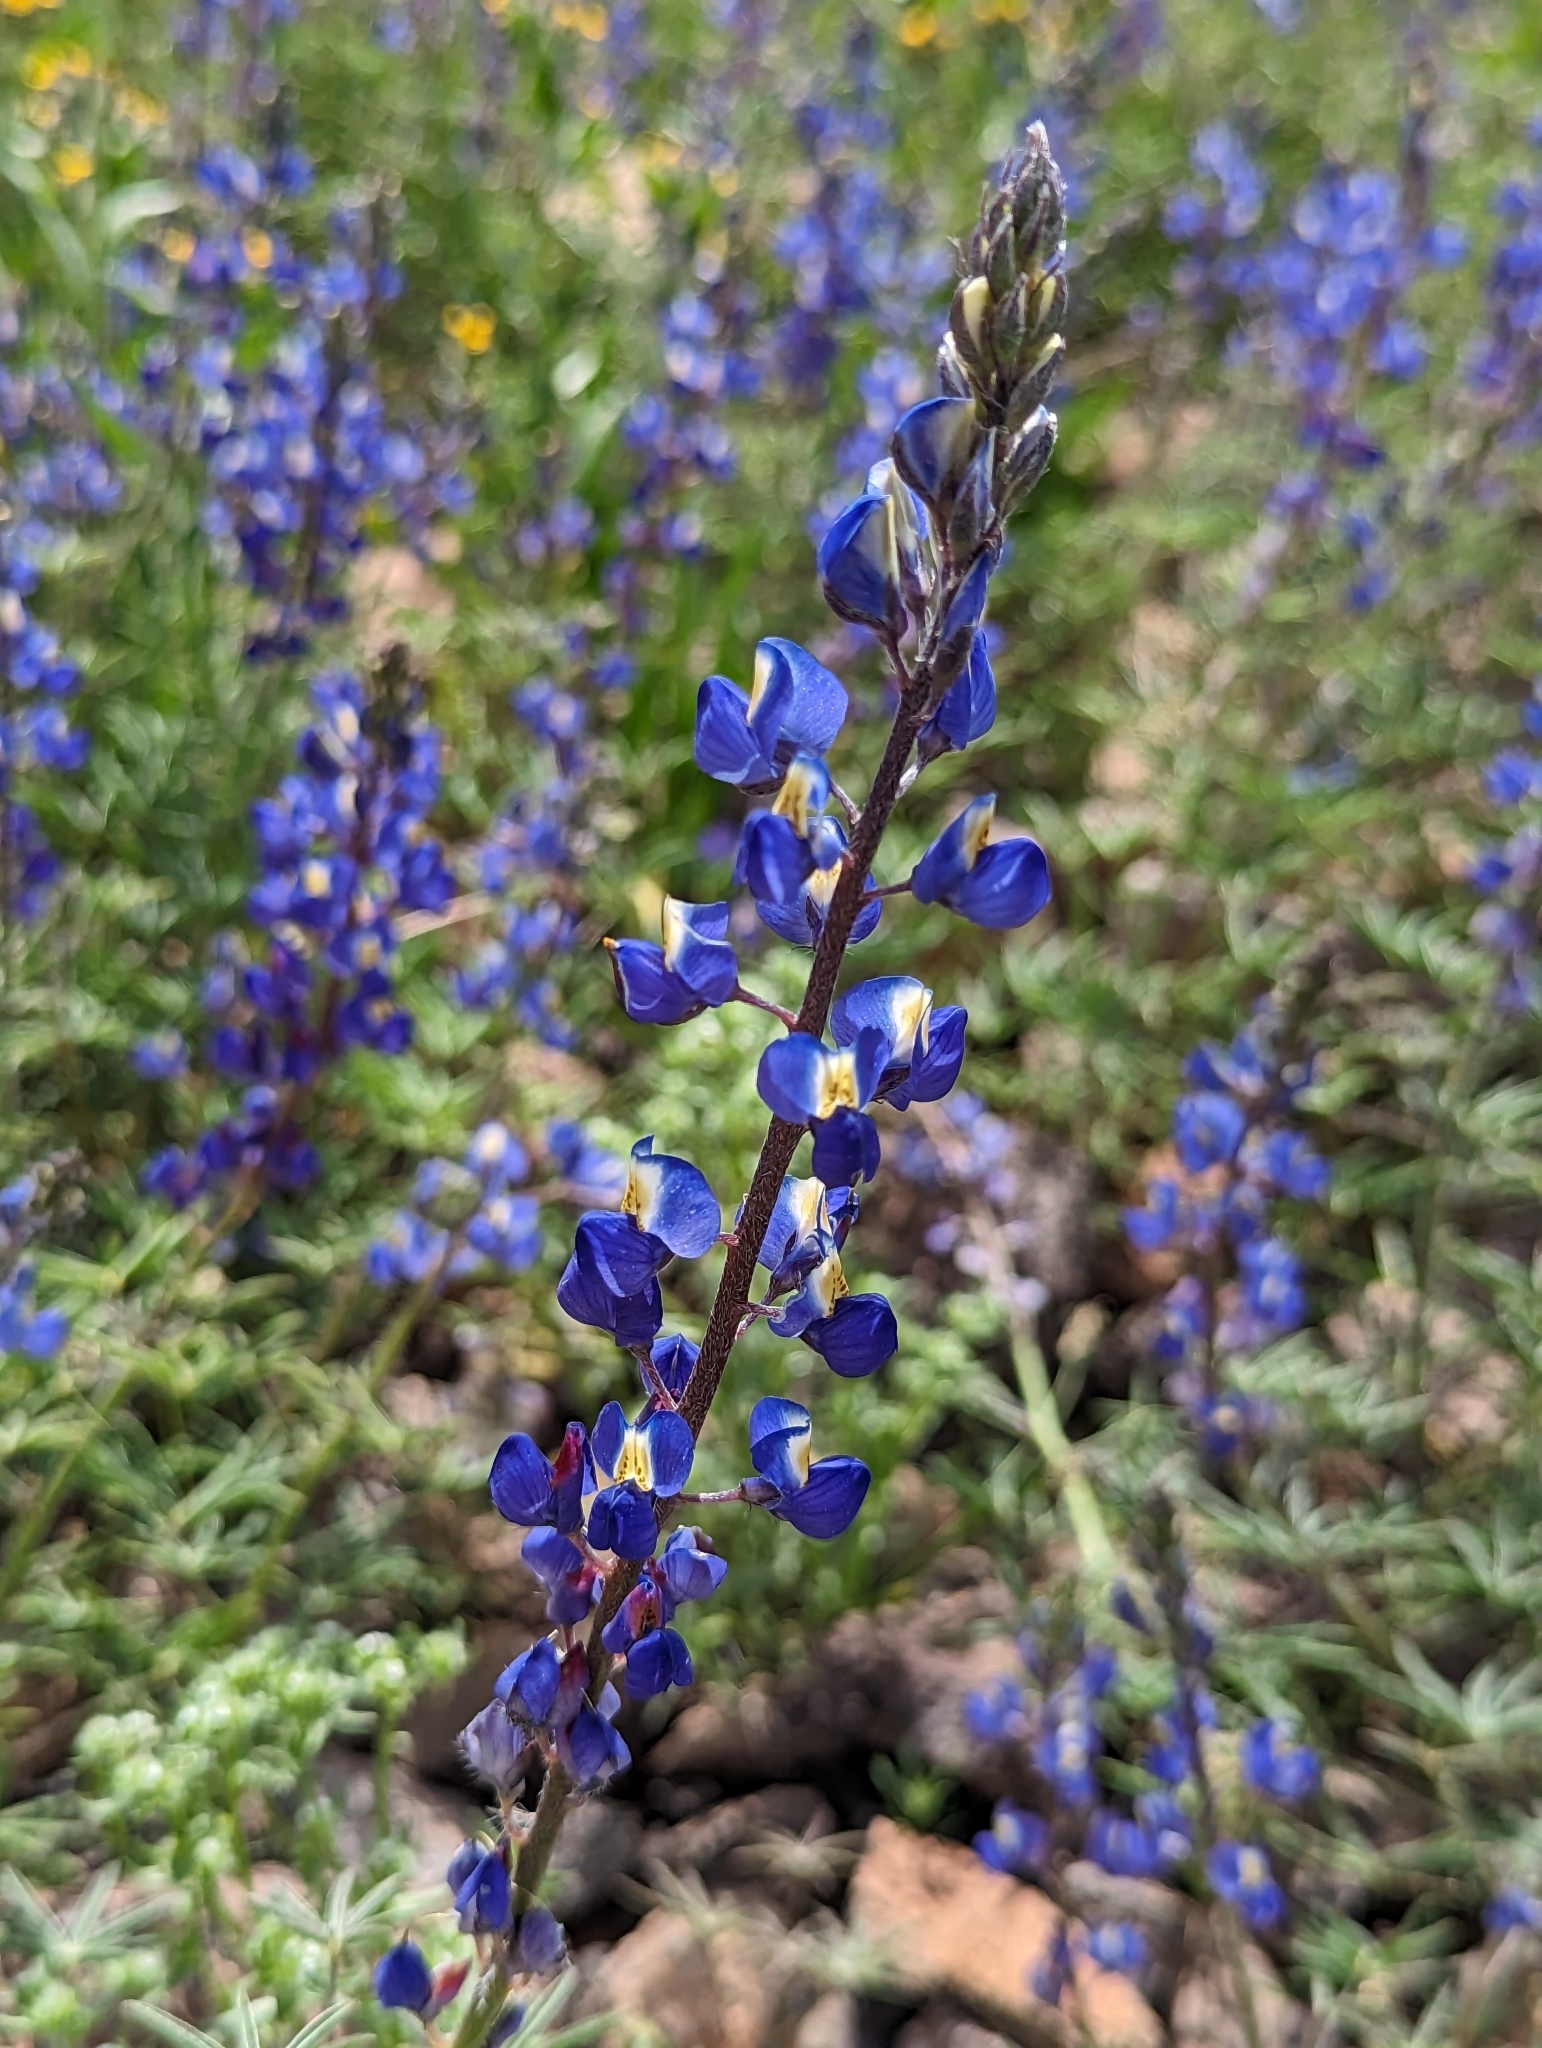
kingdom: Plantae
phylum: Tracheophyta
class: Magnoliopsida
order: Fabales
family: Fabaceae
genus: Lupinus
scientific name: Lupinus sparsiflorus
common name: Coulter's lupine
